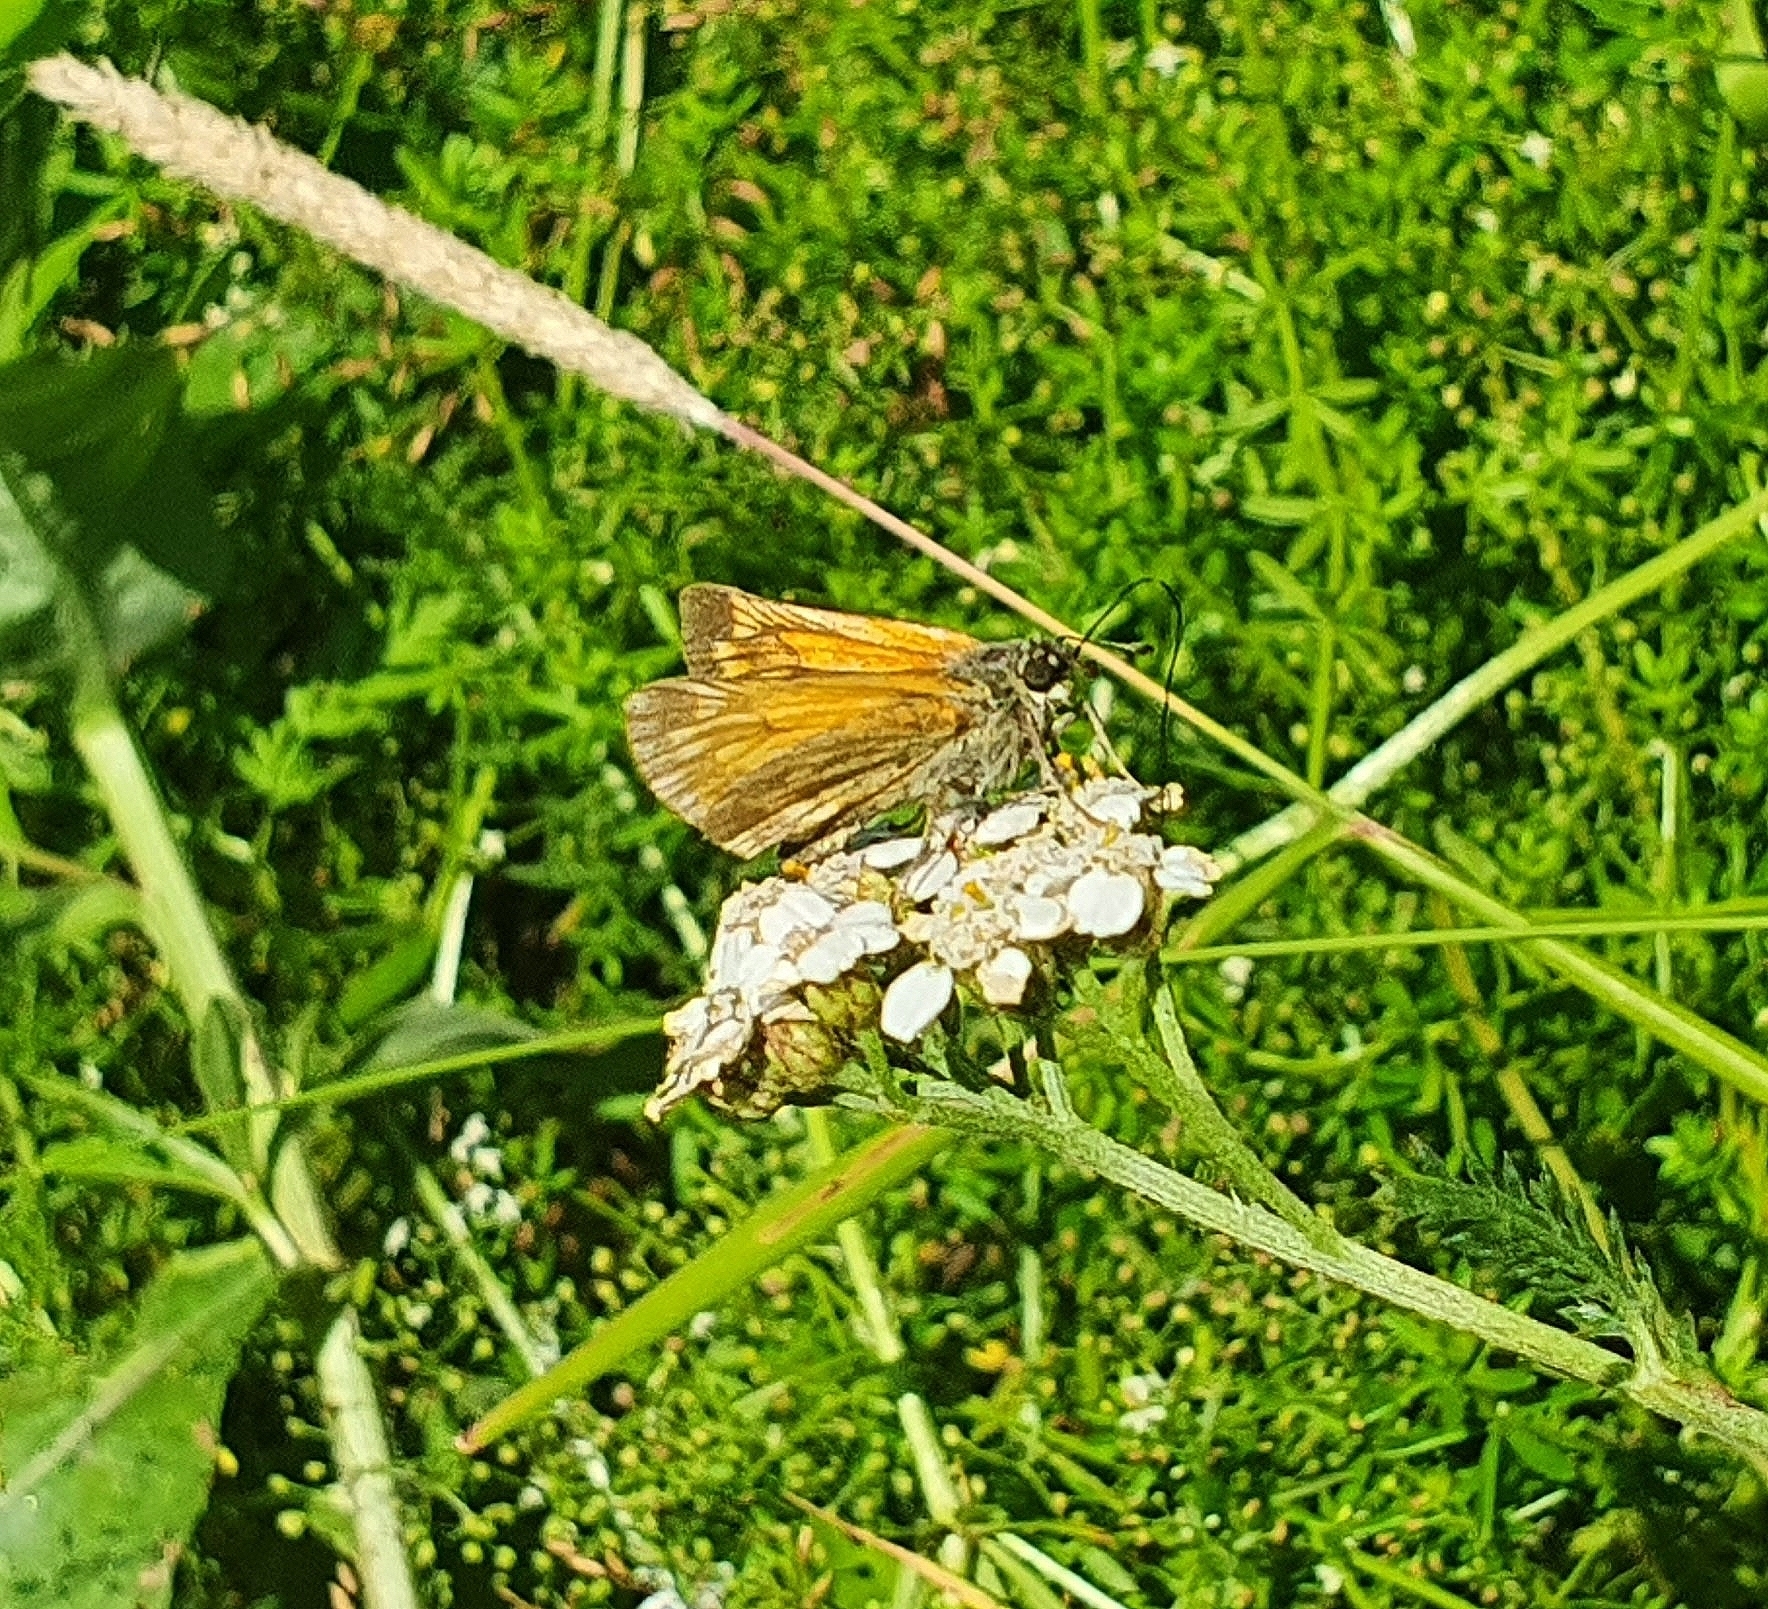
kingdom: Animalia
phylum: Arthropoda
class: Insecta
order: Lepidoptera
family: Hesperiidae
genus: Ochlodes
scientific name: Ochlodes venata
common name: Large skipper
